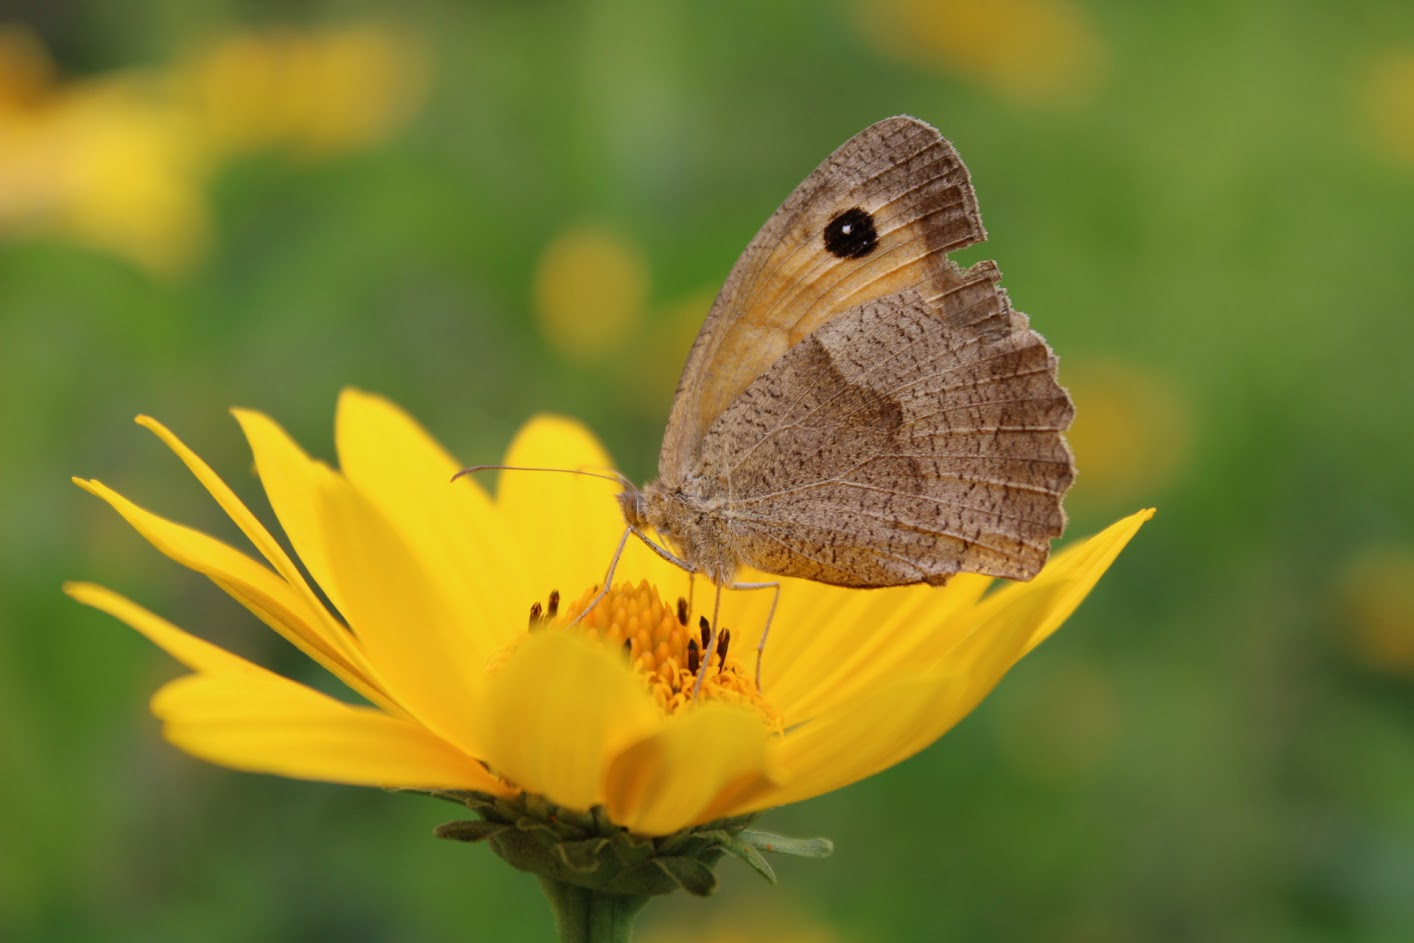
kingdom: Animalia
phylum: Arthropoda
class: Insecta
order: Lepidoptera
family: Nymphalidae
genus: Maniola
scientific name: Maniola jurtina
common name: Meadow brown
